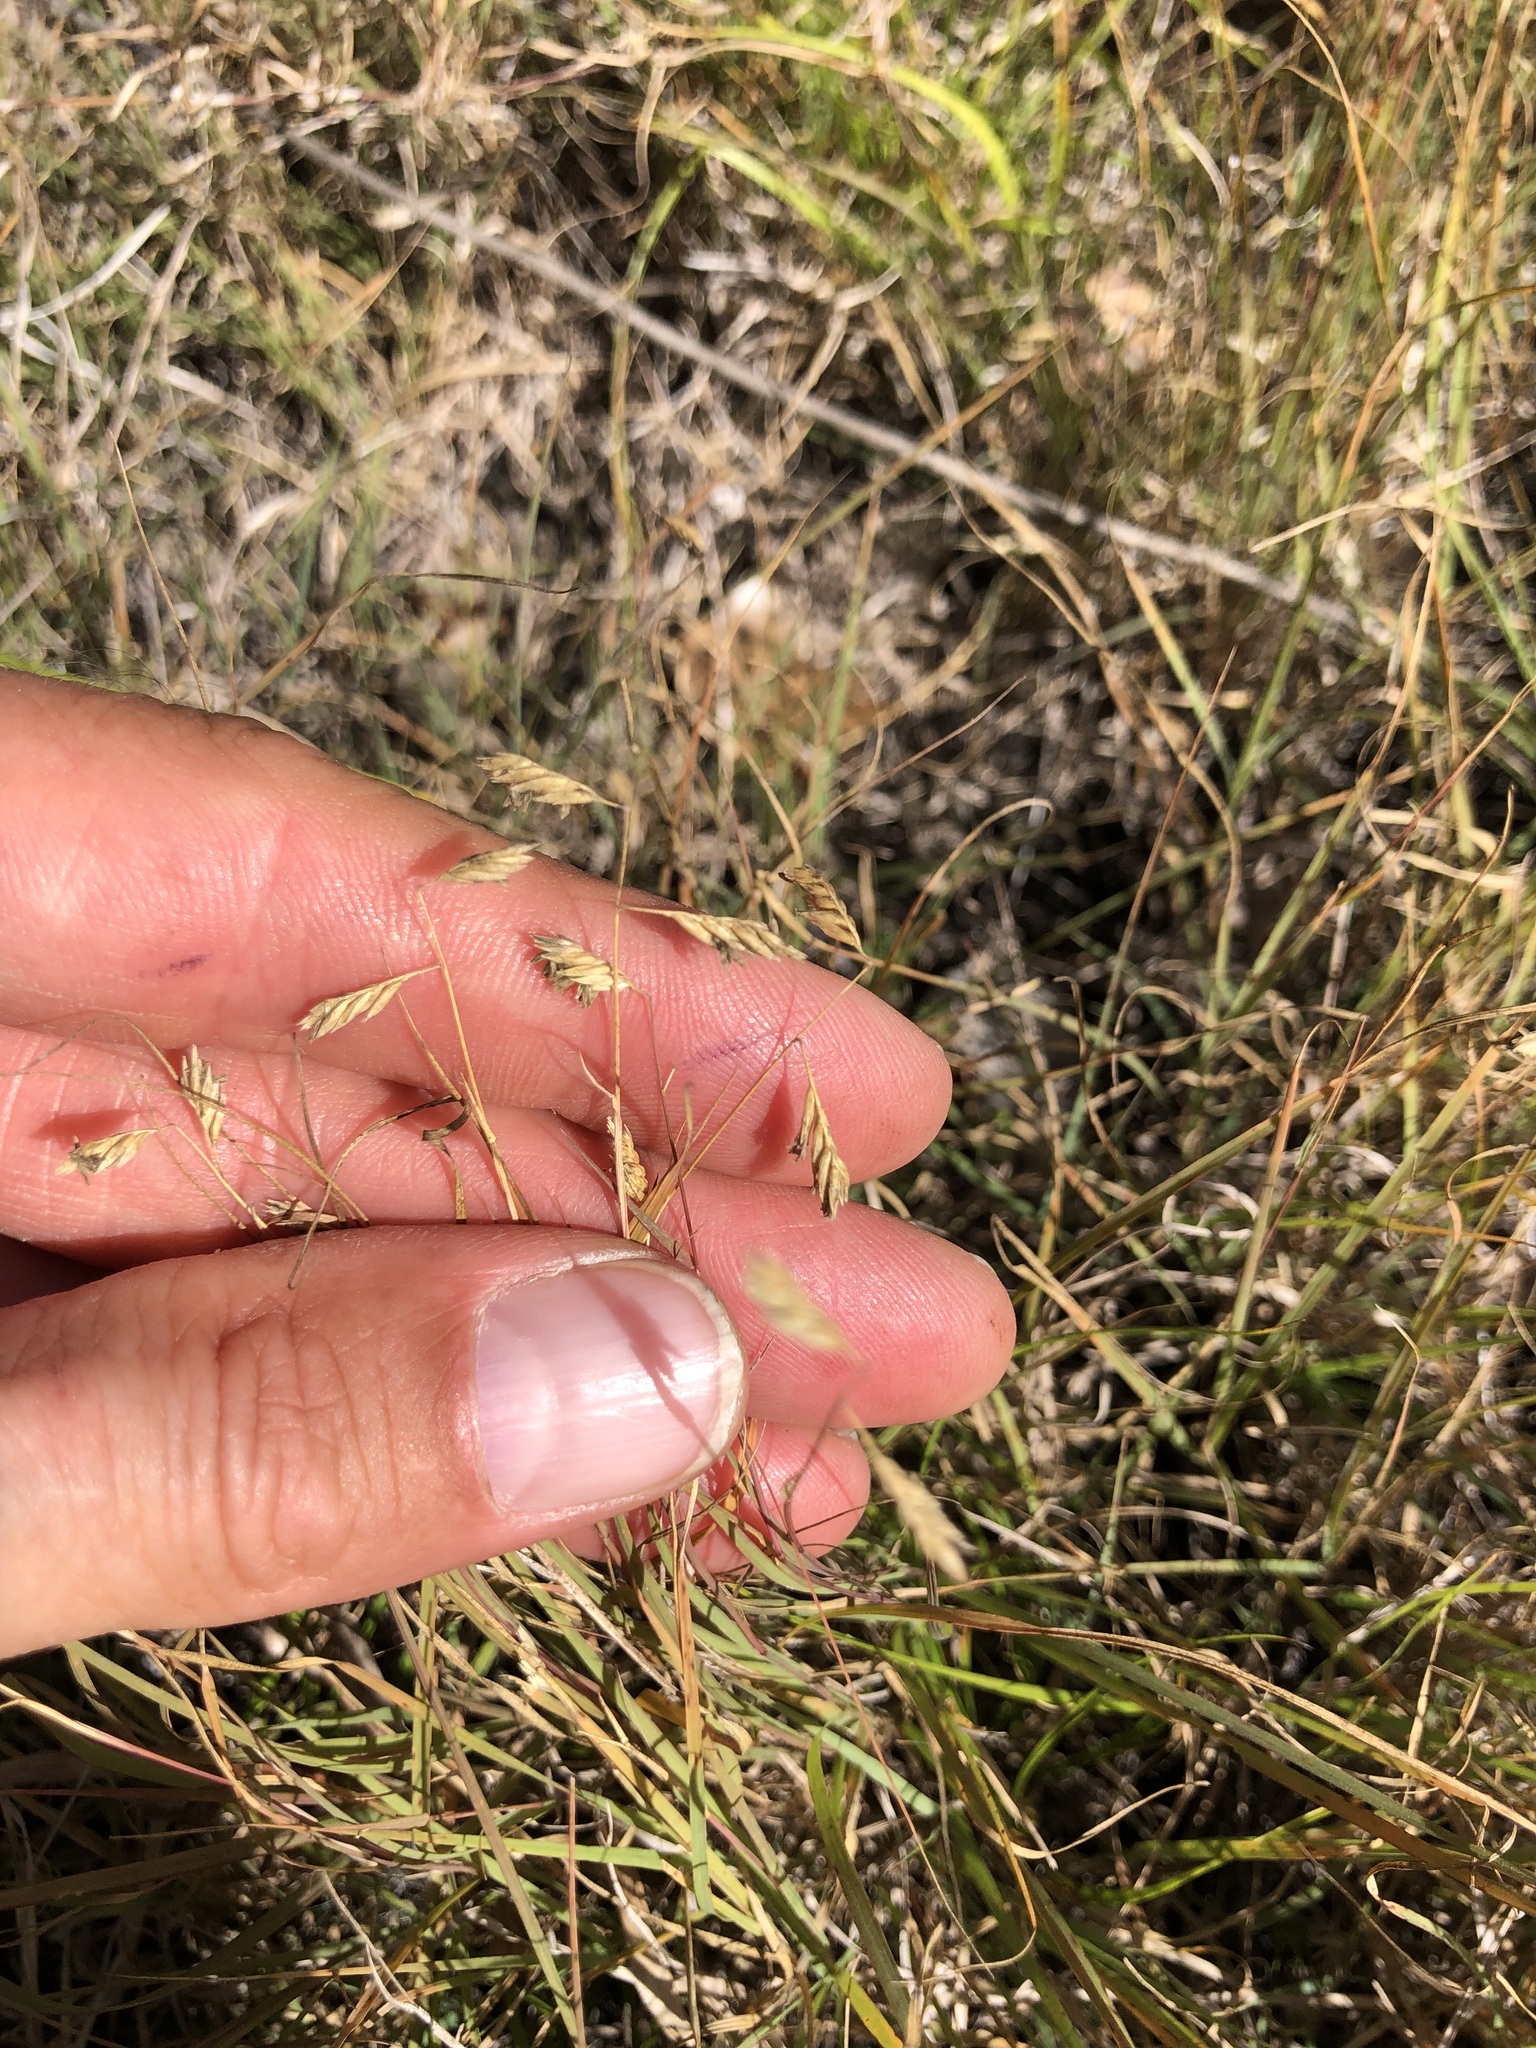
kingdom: Plantae
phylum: Tracheophyta
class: Liliopsida
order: Poales
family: Poaceae
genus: Bouteloua
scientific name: Bouteloua dactyloides
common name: Buffalo grass
